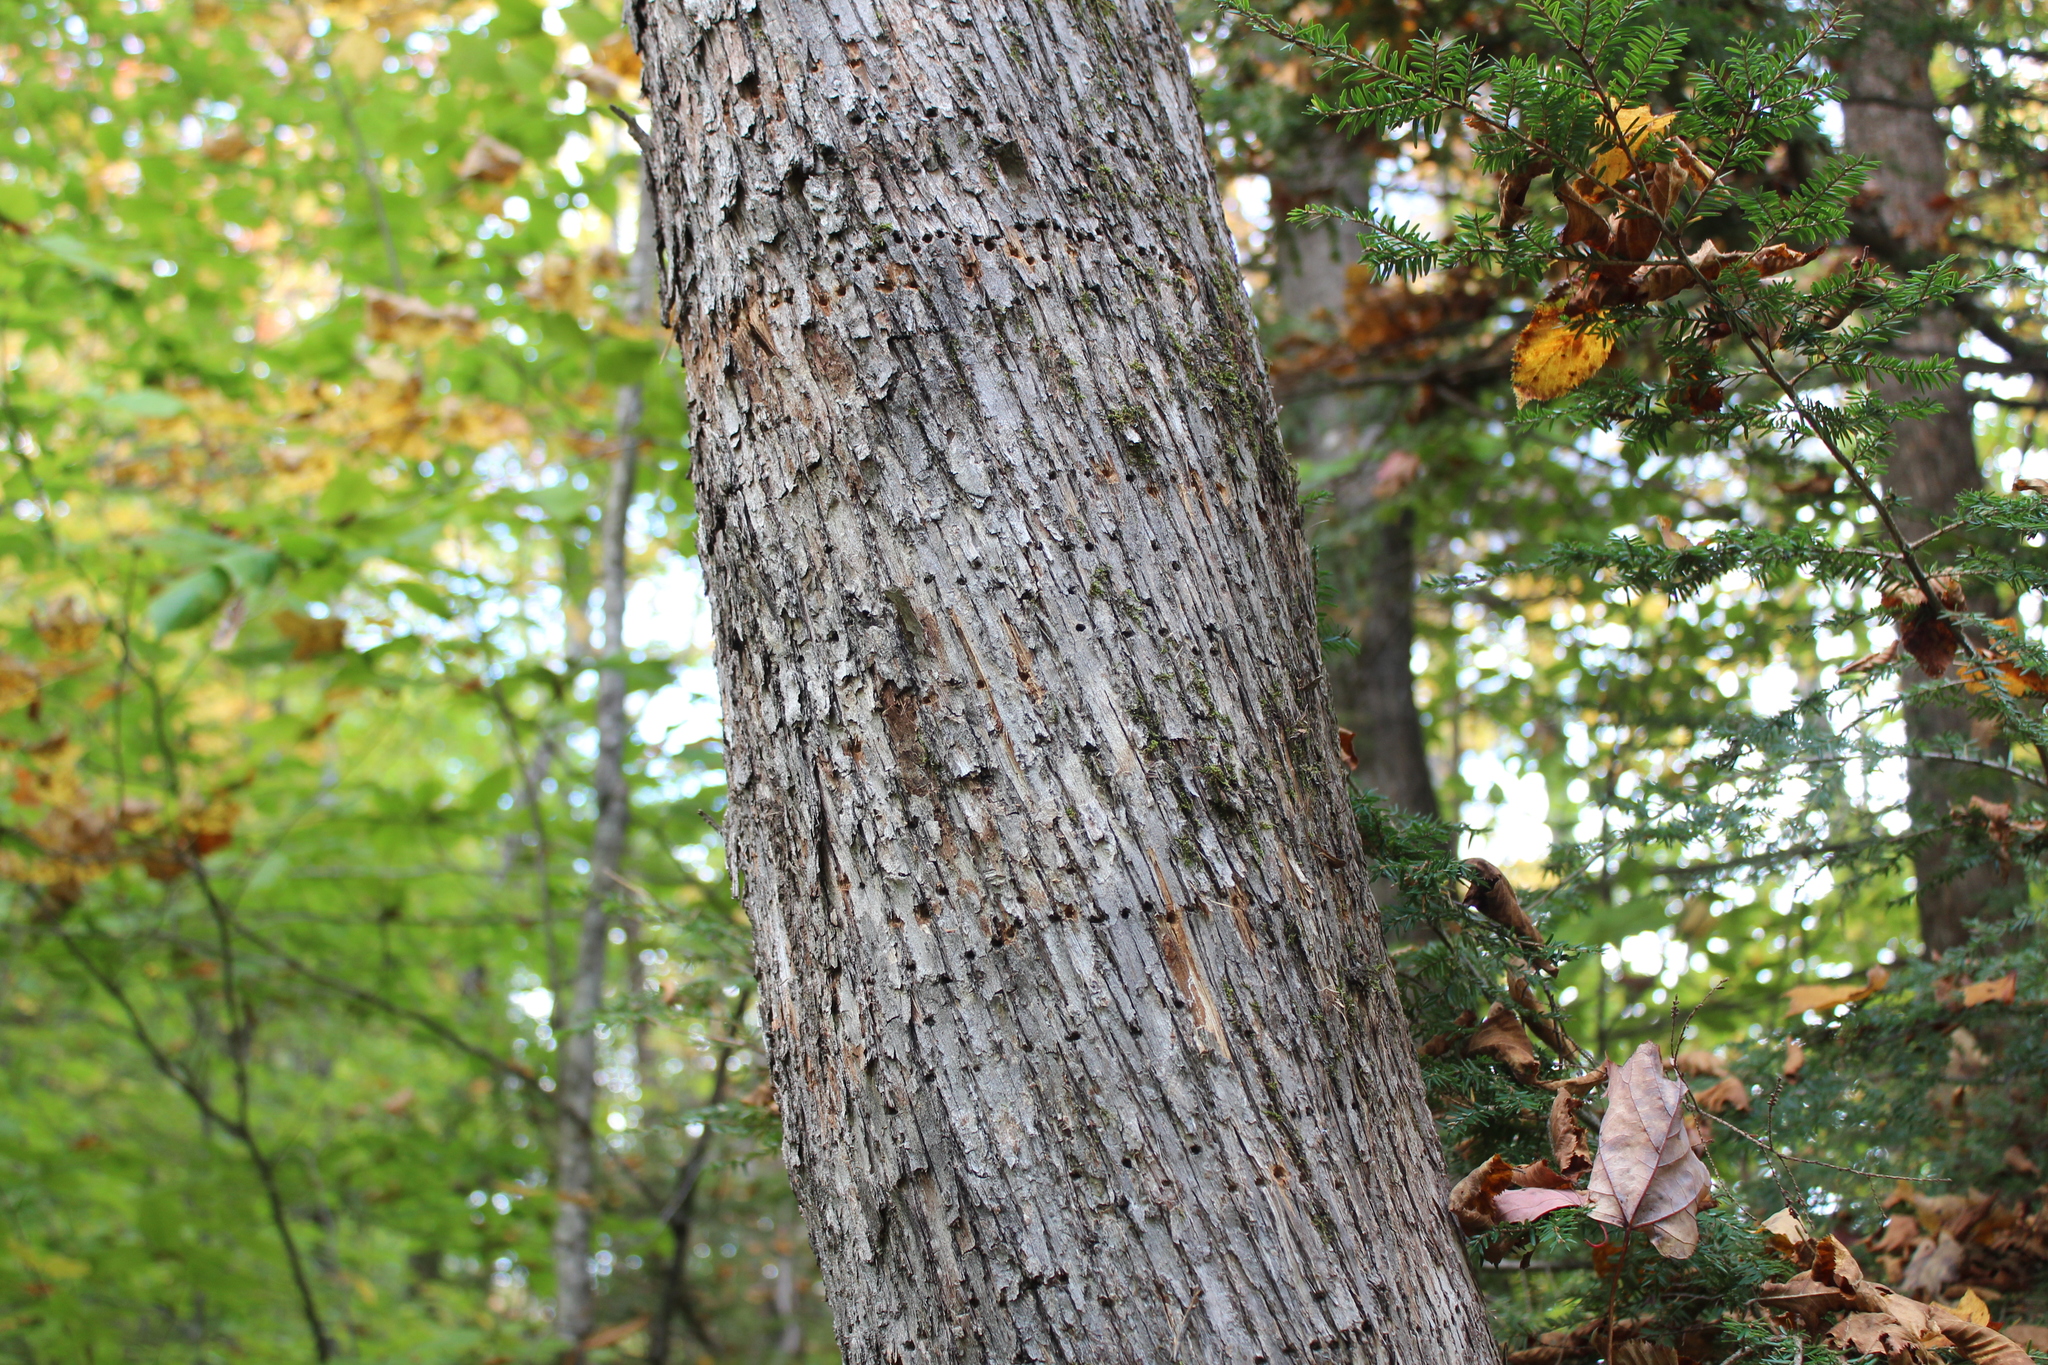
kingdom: Plantae
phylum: Tracheophyta
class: Magnoliopsida
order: Fagales
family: Betulaceae
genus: Ostrya
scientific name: Ostrya virginiana
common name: Ironwood
